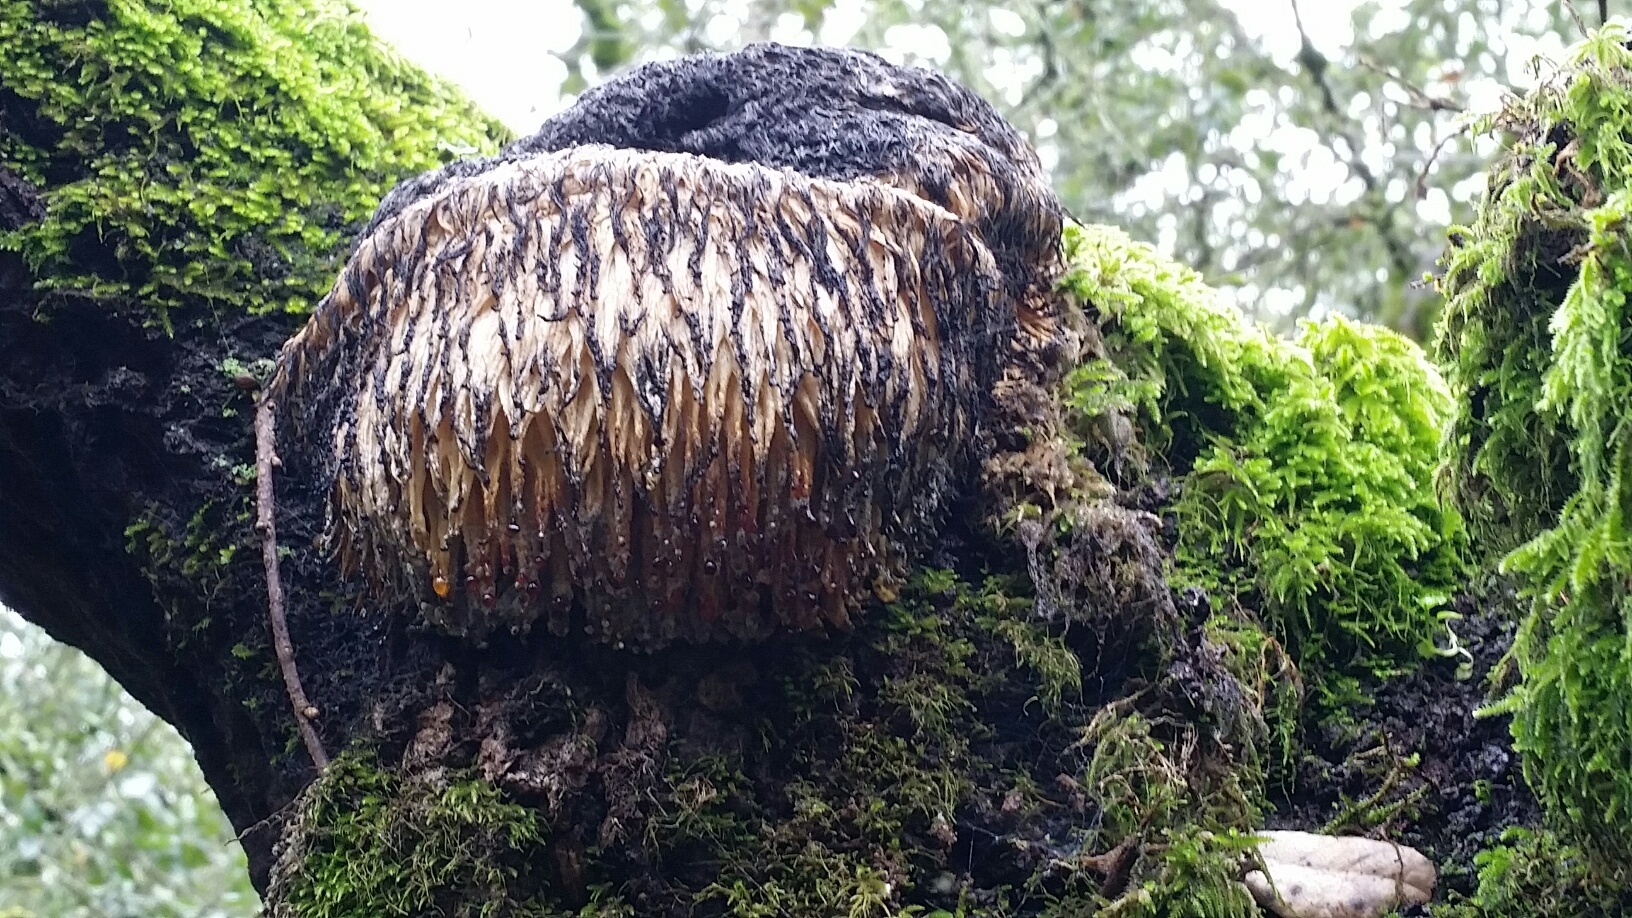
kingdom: Fungi
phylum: Basidiomycota
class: Agaricomycetes
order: Russulales
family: Hericiaceae
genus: Hericium
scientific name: Hericium erinaceus
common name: Bearded tooth
